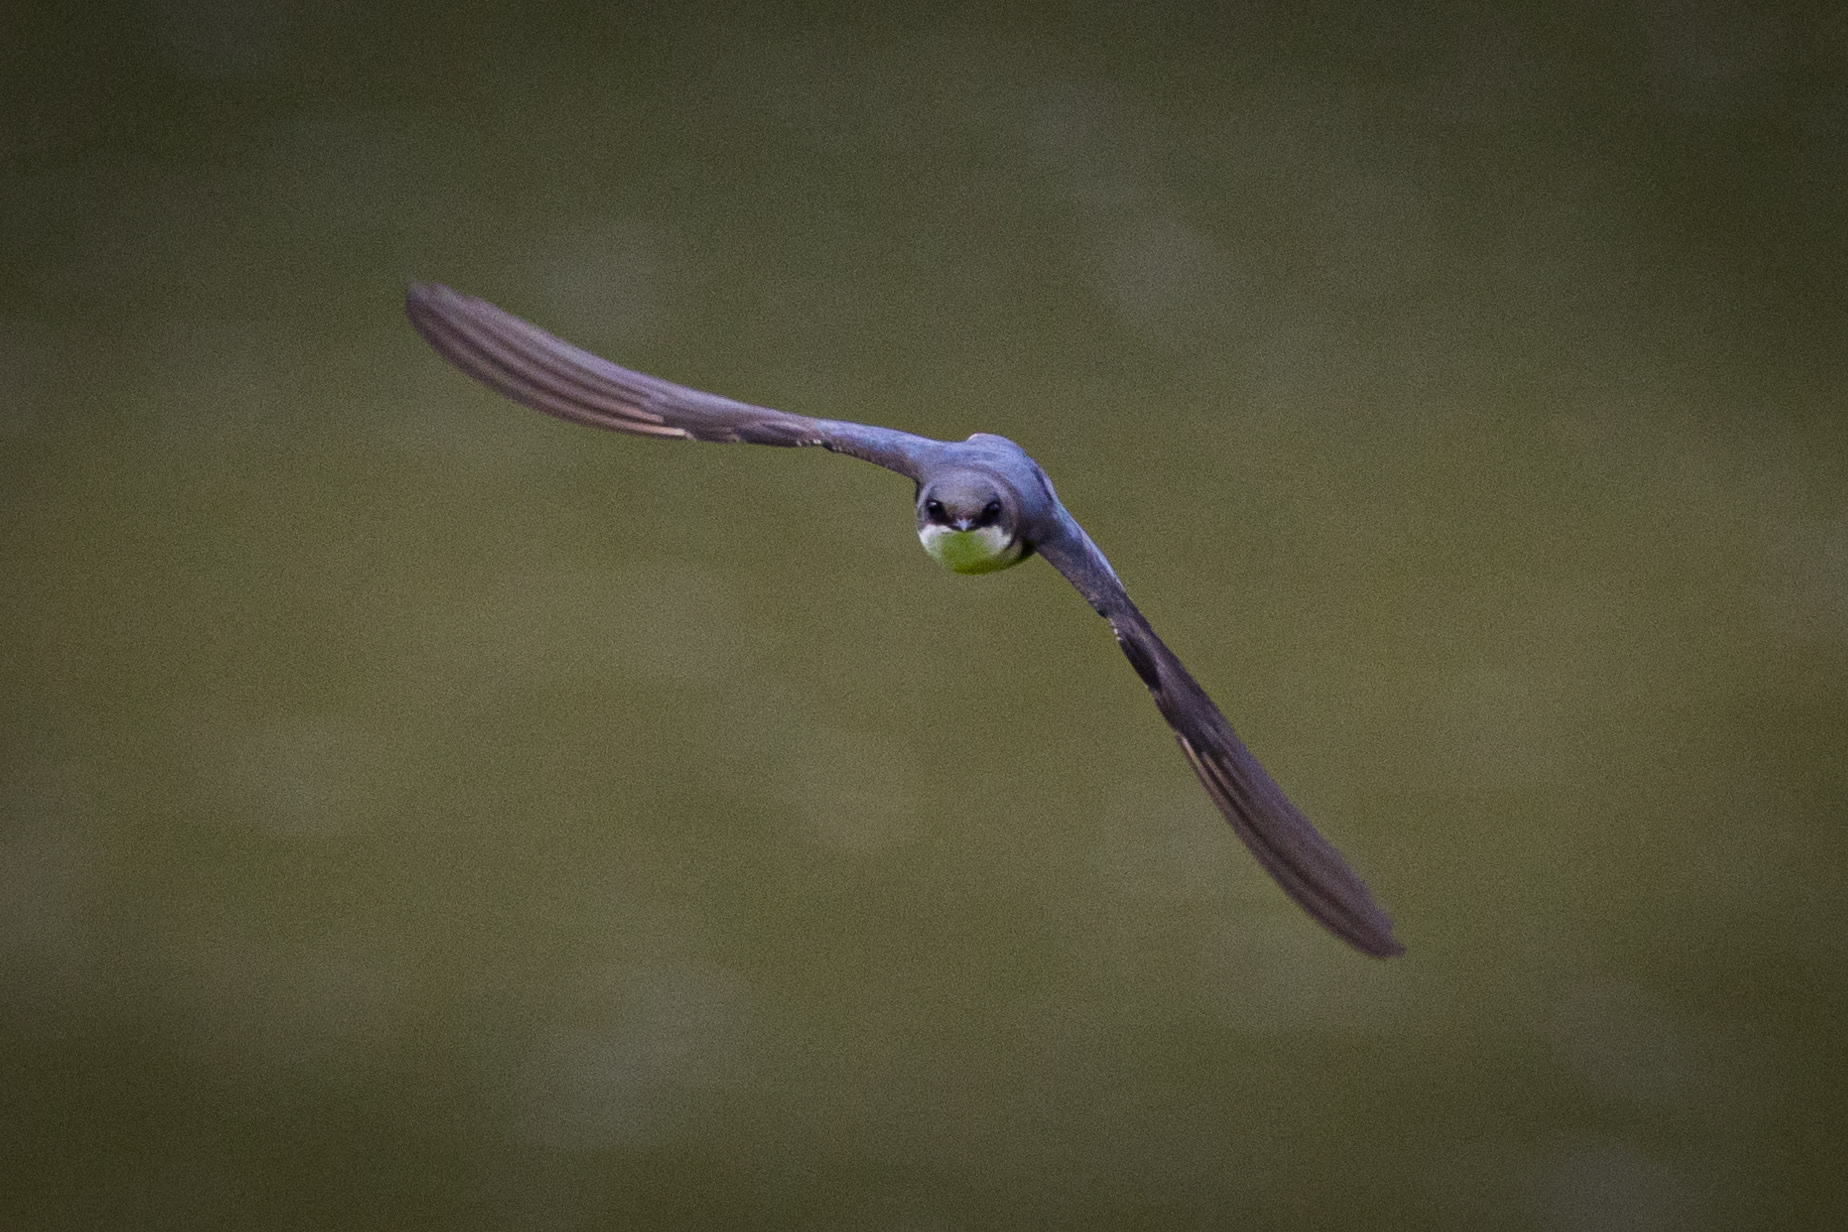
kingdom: Animalia
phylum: Chordata
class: Aves
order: Passeriformes
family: Hirundinidae
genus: Tachycineta
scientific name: Tachycineta bicolor
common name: Tree swallow
